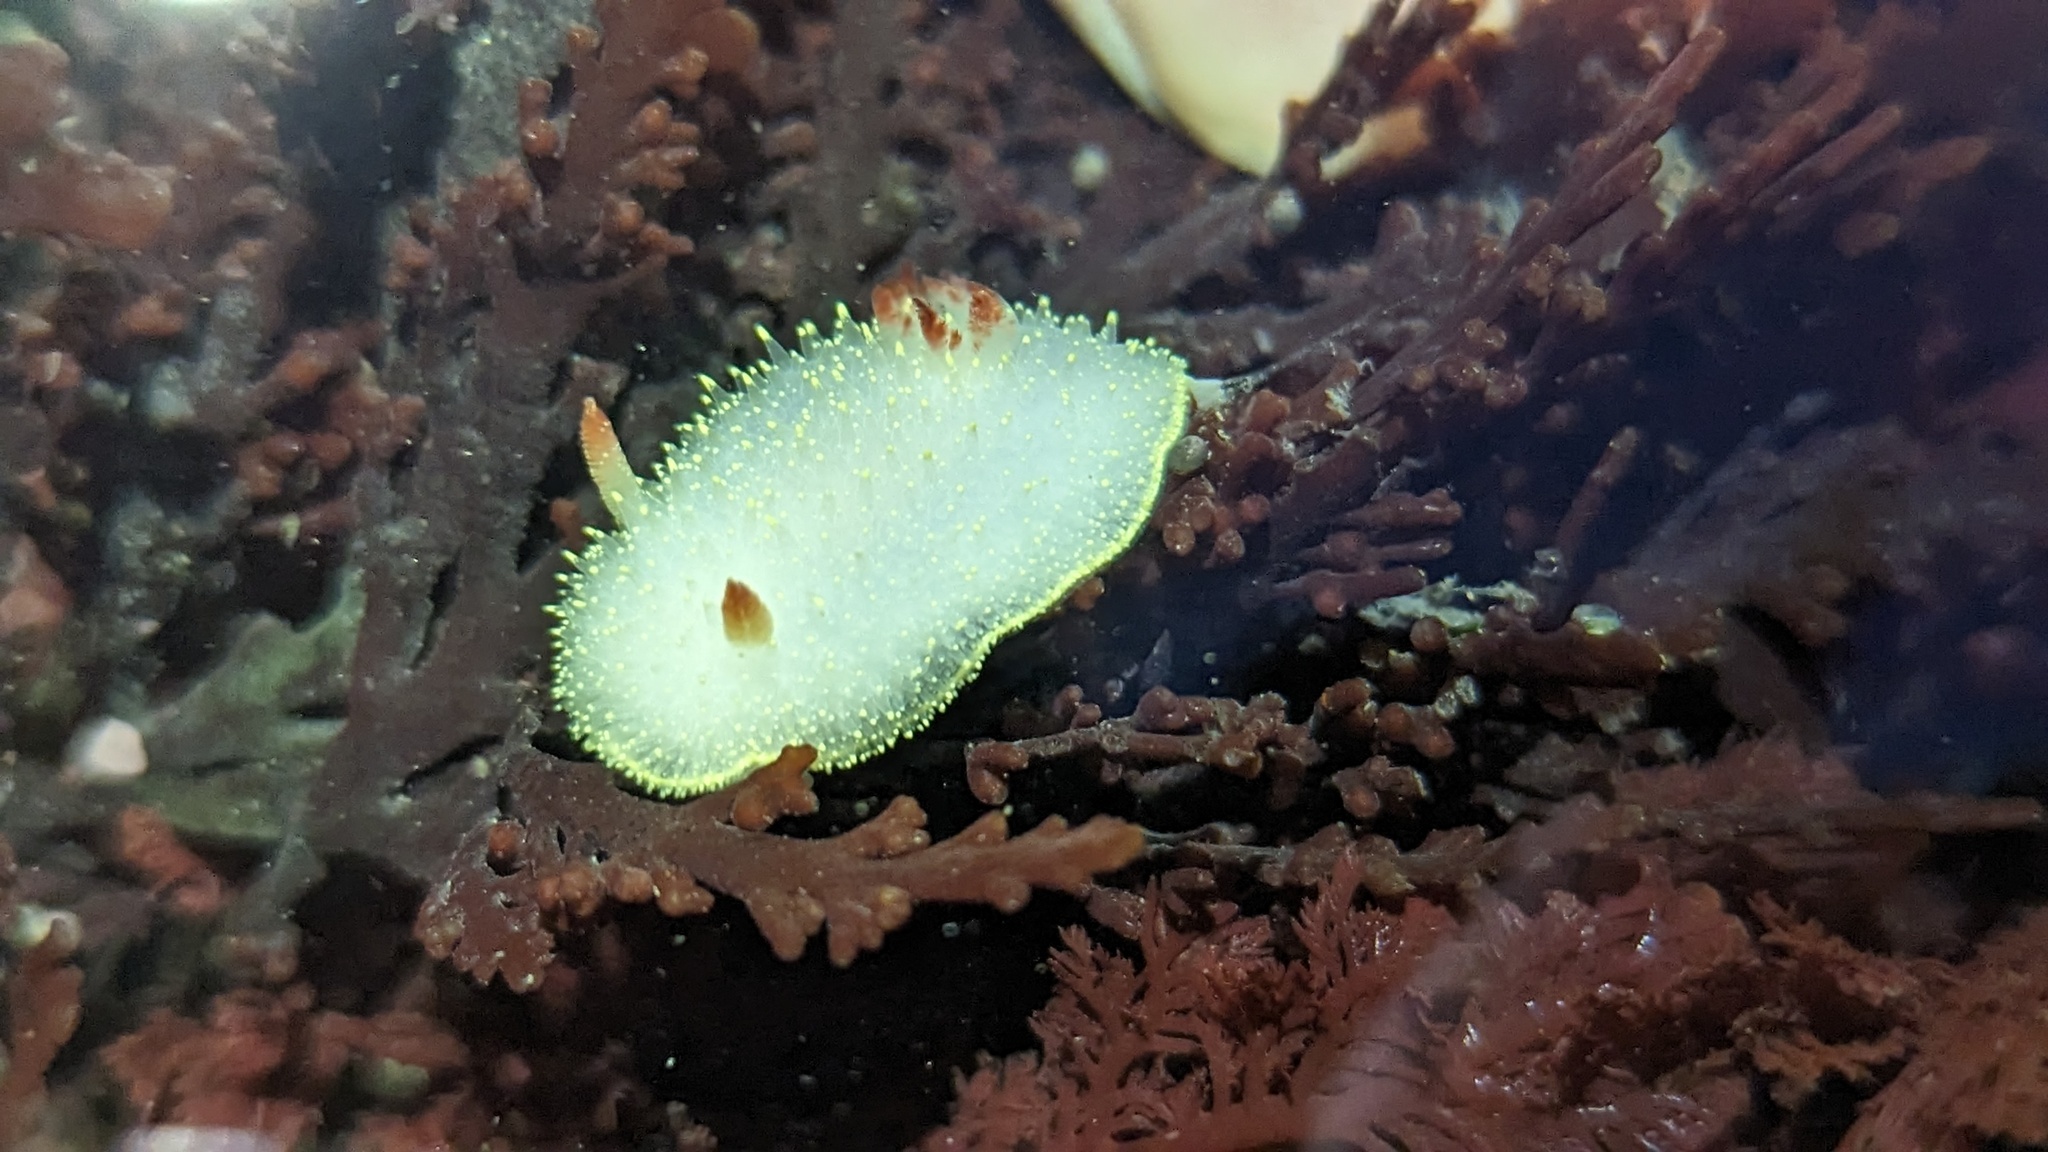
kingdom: Animalia
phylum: Mollusca
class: Gastropoda
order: Nudibranchia
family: Onchidorididae
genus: Acanthodoris
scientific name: Acanthodoris nanaimoensis
